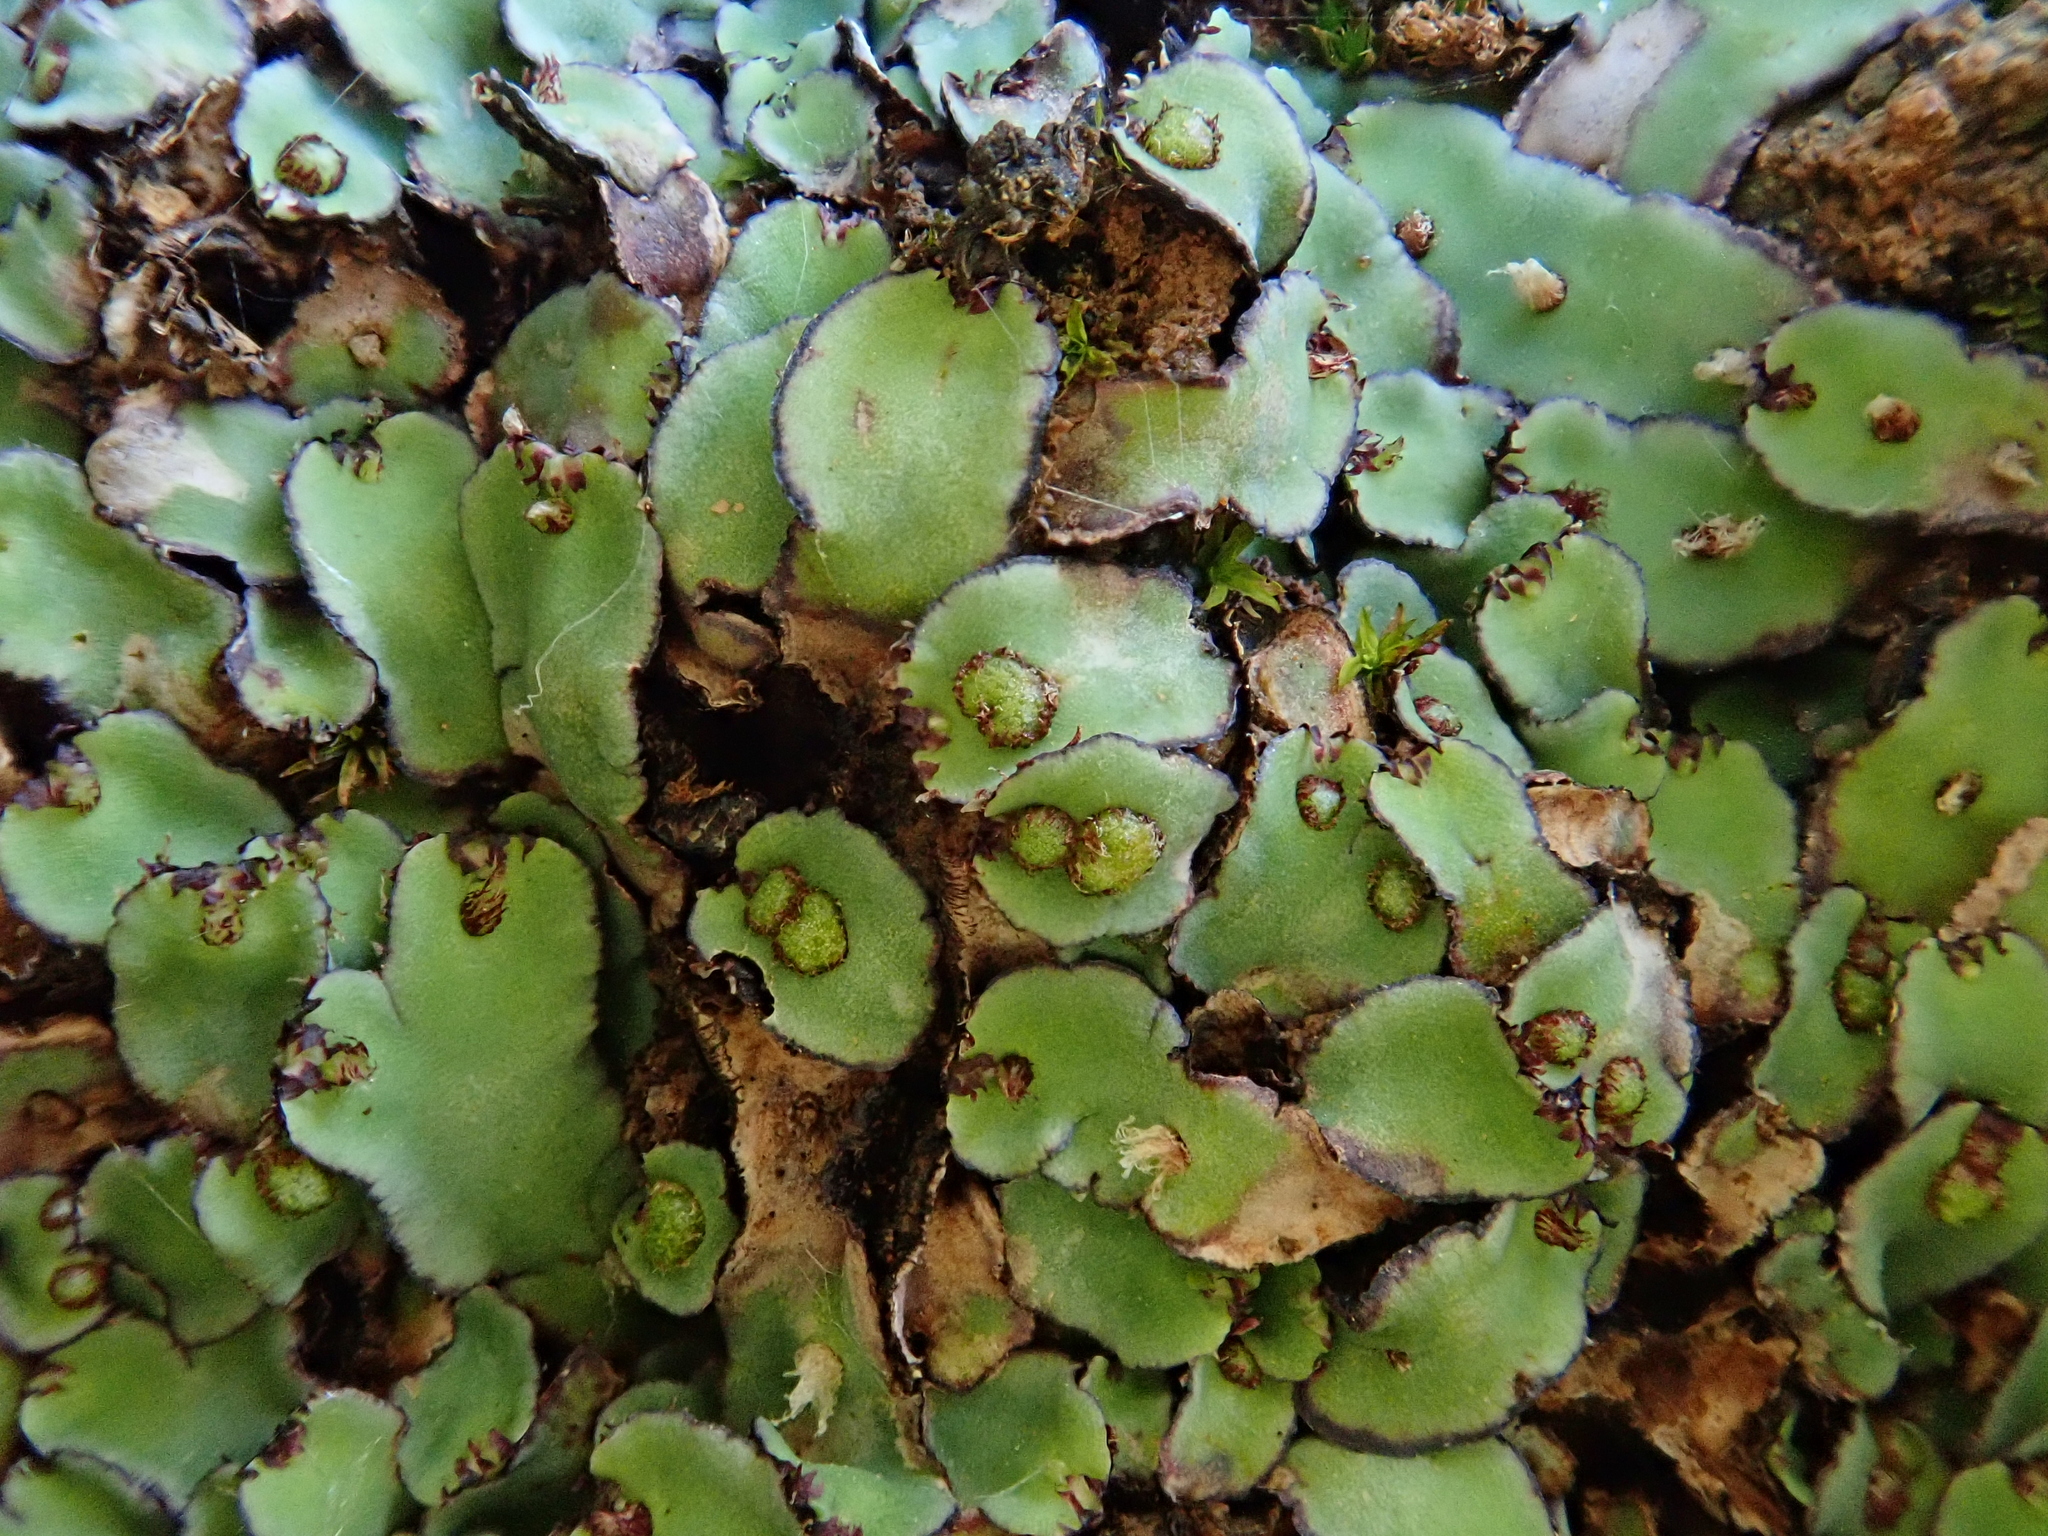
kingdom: Plantae
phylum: Marchantiophyta
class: Marchantiopsida
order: Marchantiales
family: Aytoniaceae
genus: Plagiochasma
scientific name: Plagiochasma rupestre
